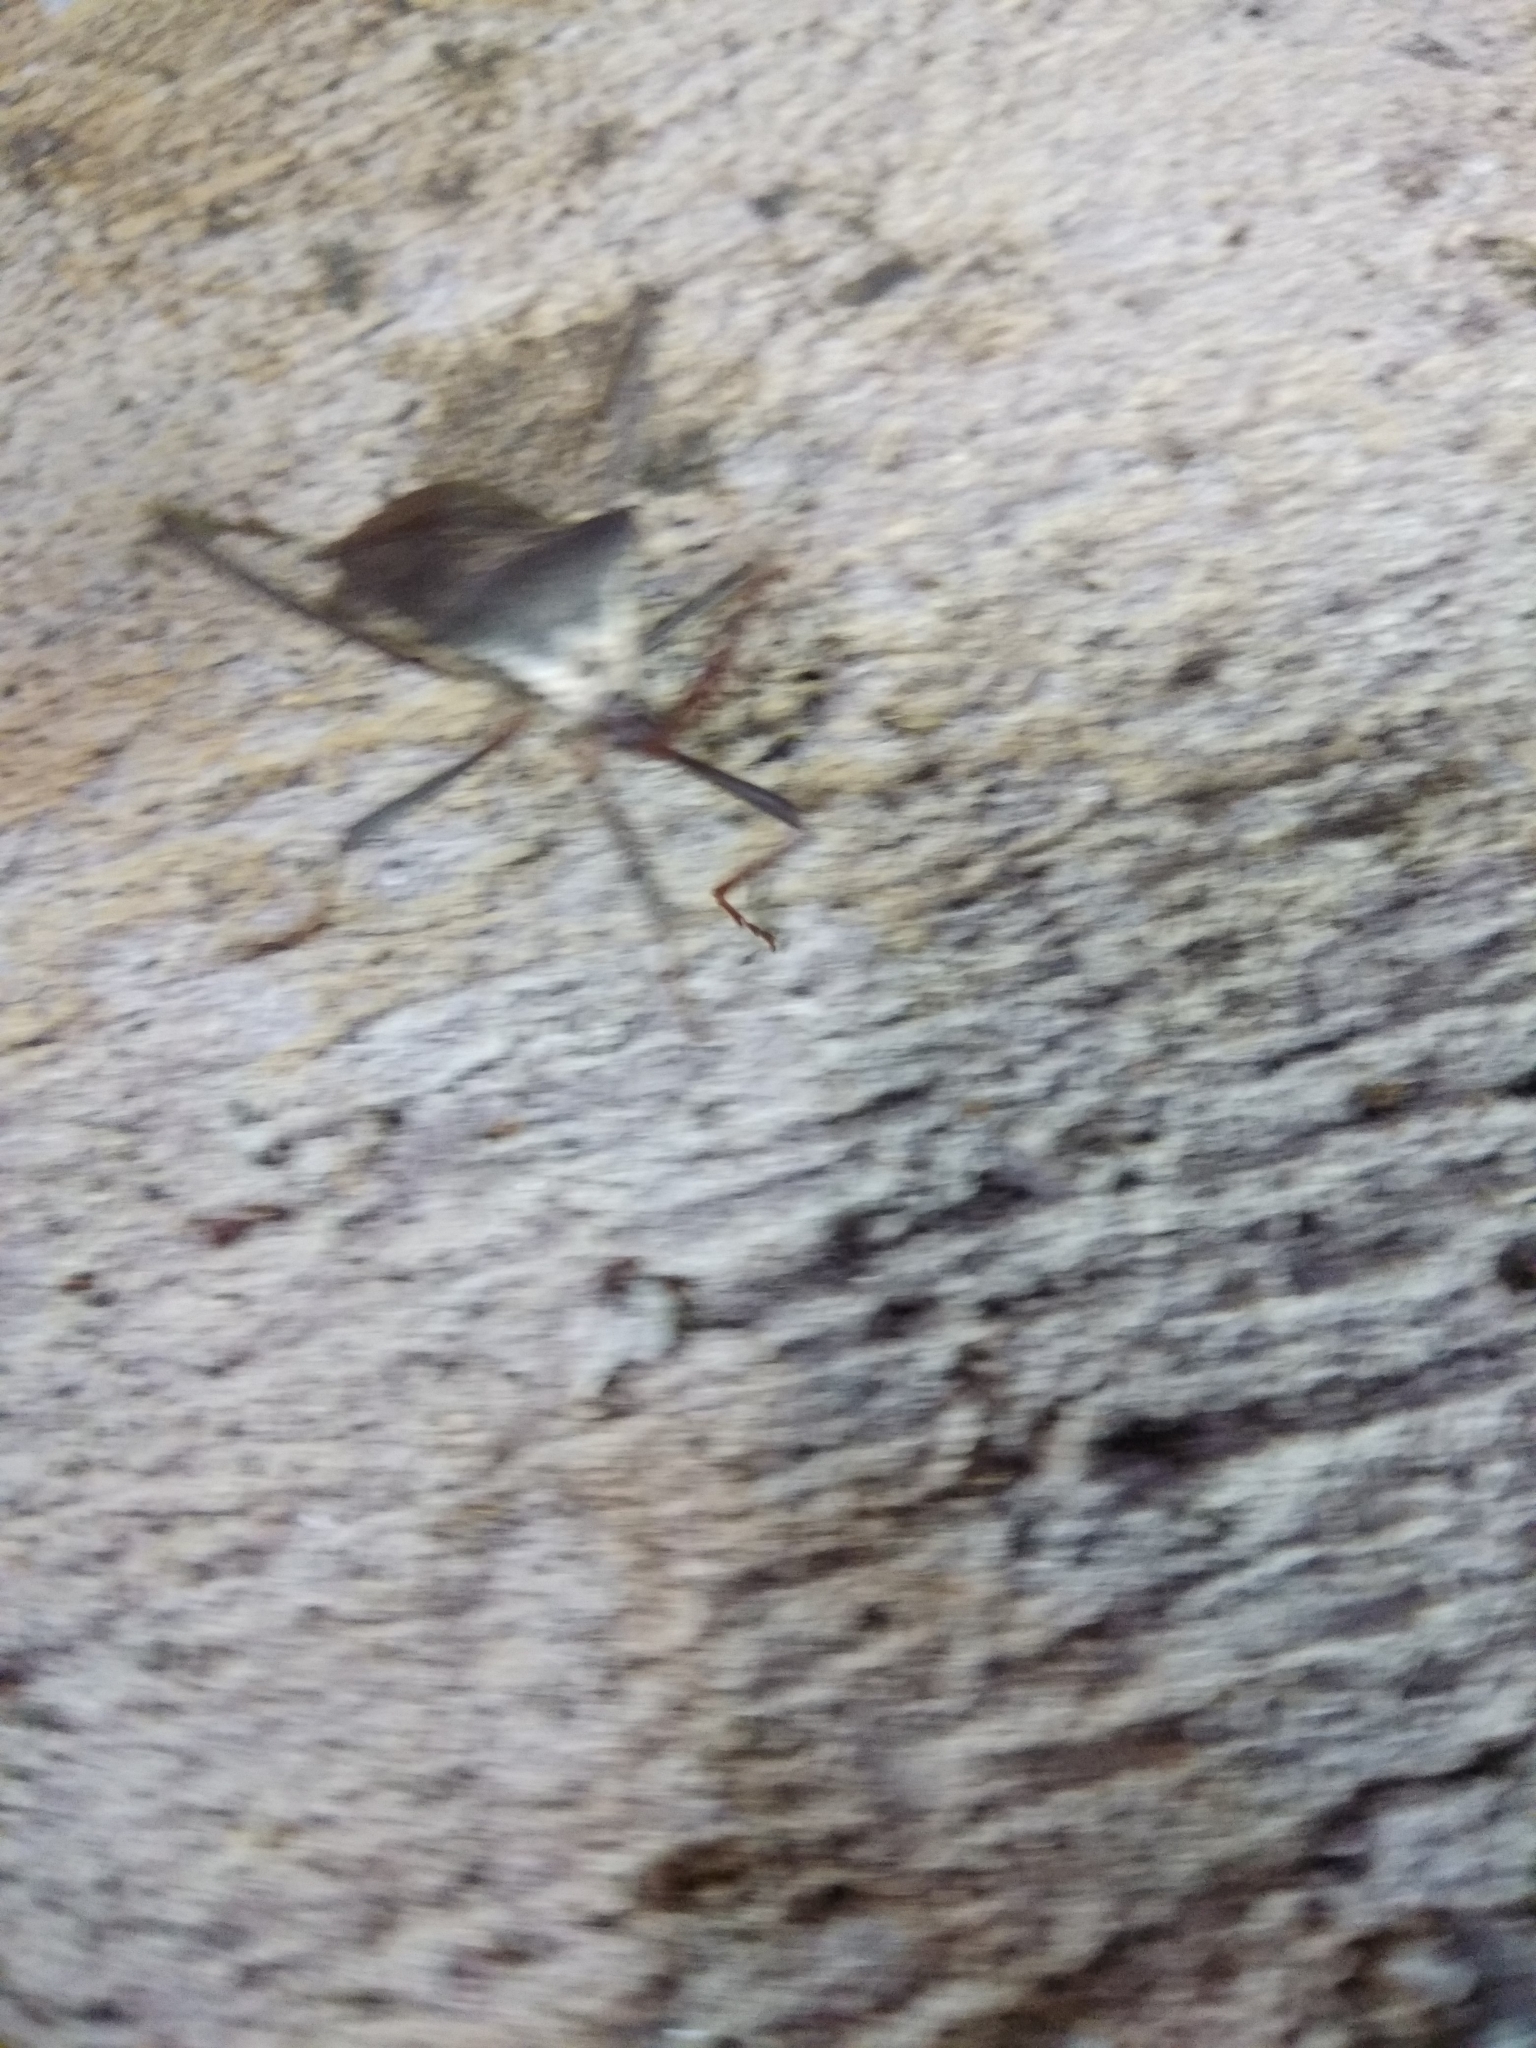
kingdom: Animalia
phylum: Arthropoda
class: Insecta
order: Hemiptera
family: Coreidae
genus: Acanthocephala
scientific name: Acanthocephala declivis
